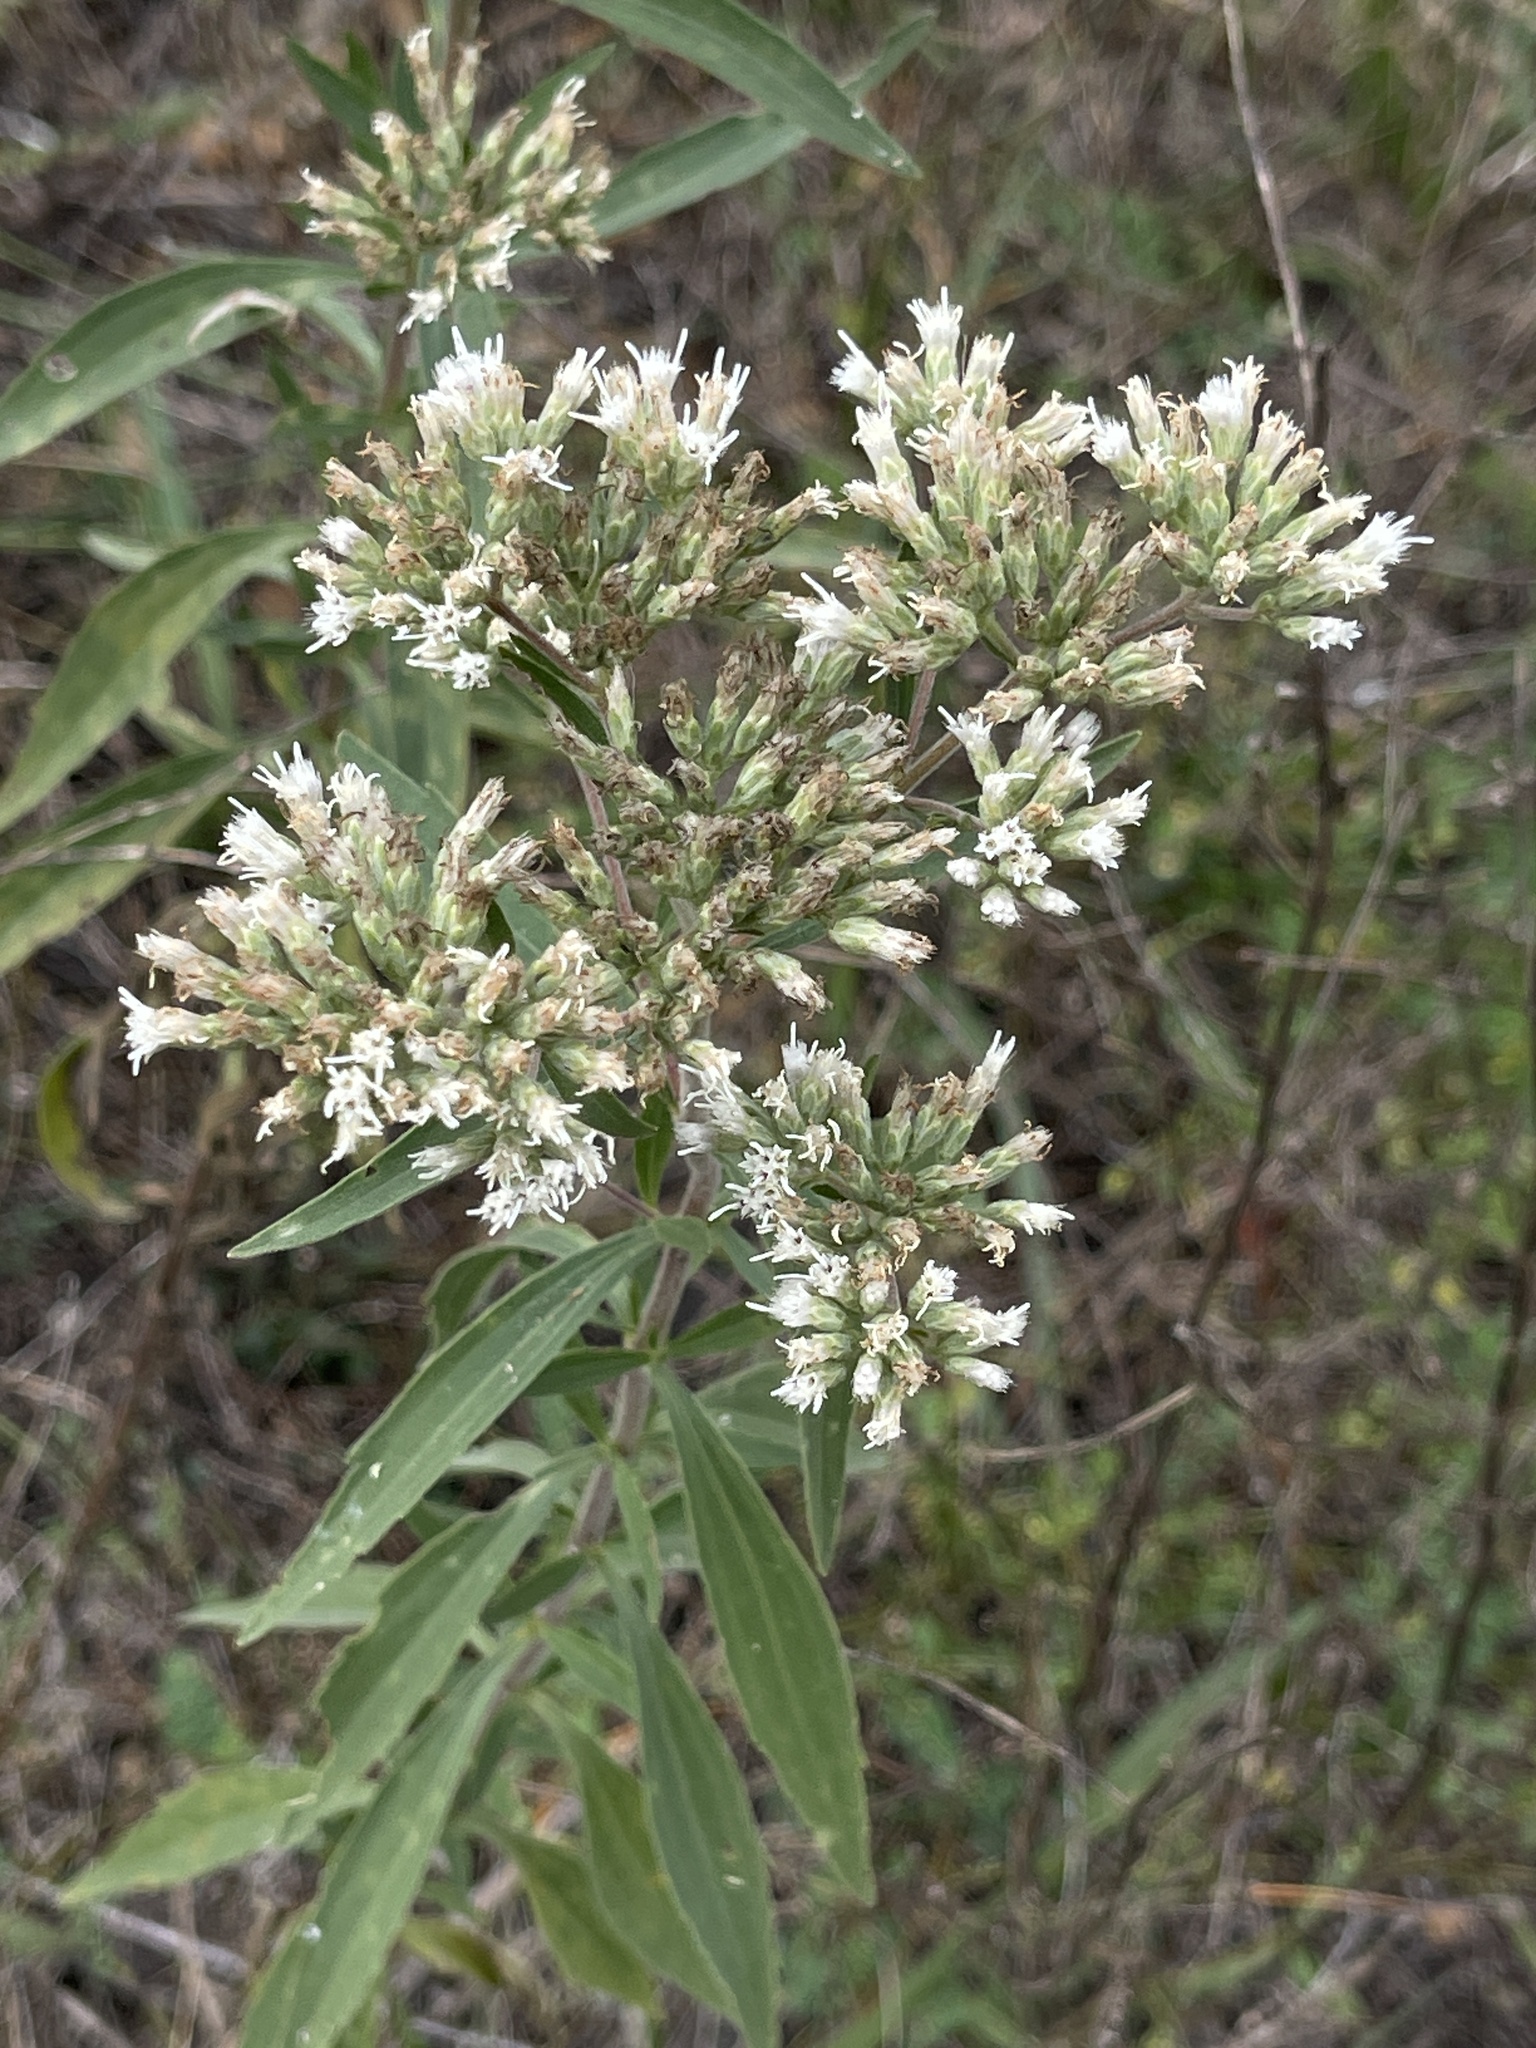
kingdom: Plantae
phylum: Tracheophyta
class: Magnoliopsida
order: Asterales
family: Asteraceae
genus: Eupatorium
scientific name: Eupatorium altissimum
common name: Tall thoroughwort
